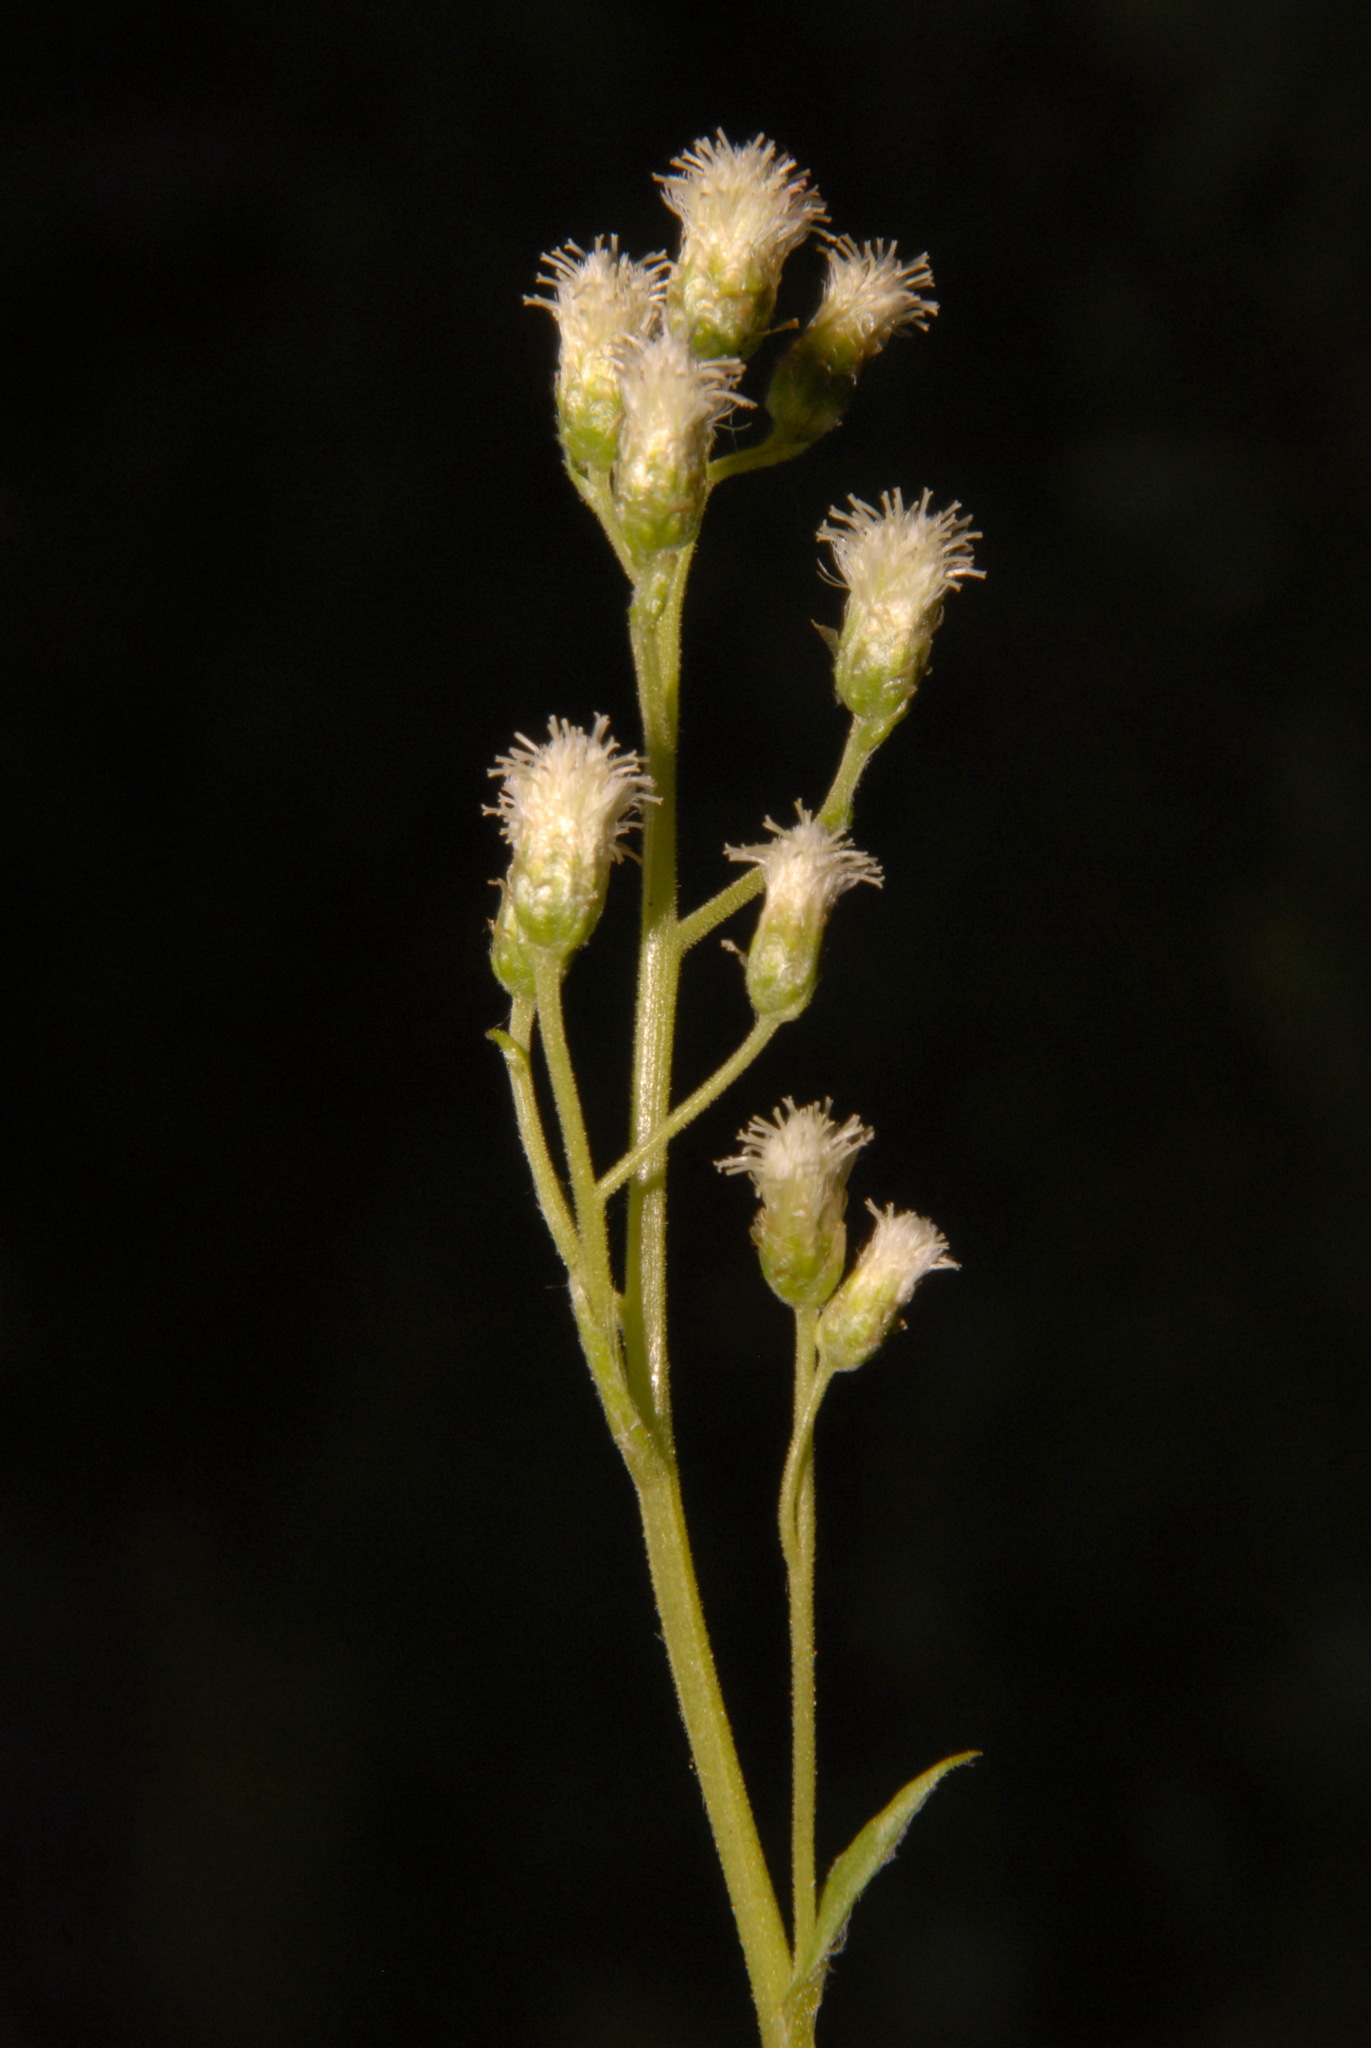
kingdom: Plantae
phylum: Tracheophyta
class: Magnoliopsida
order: Asterales
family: Asteraceae
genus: Antennaria
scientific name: Antennaria racemosa
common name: Racemose pussytoes
